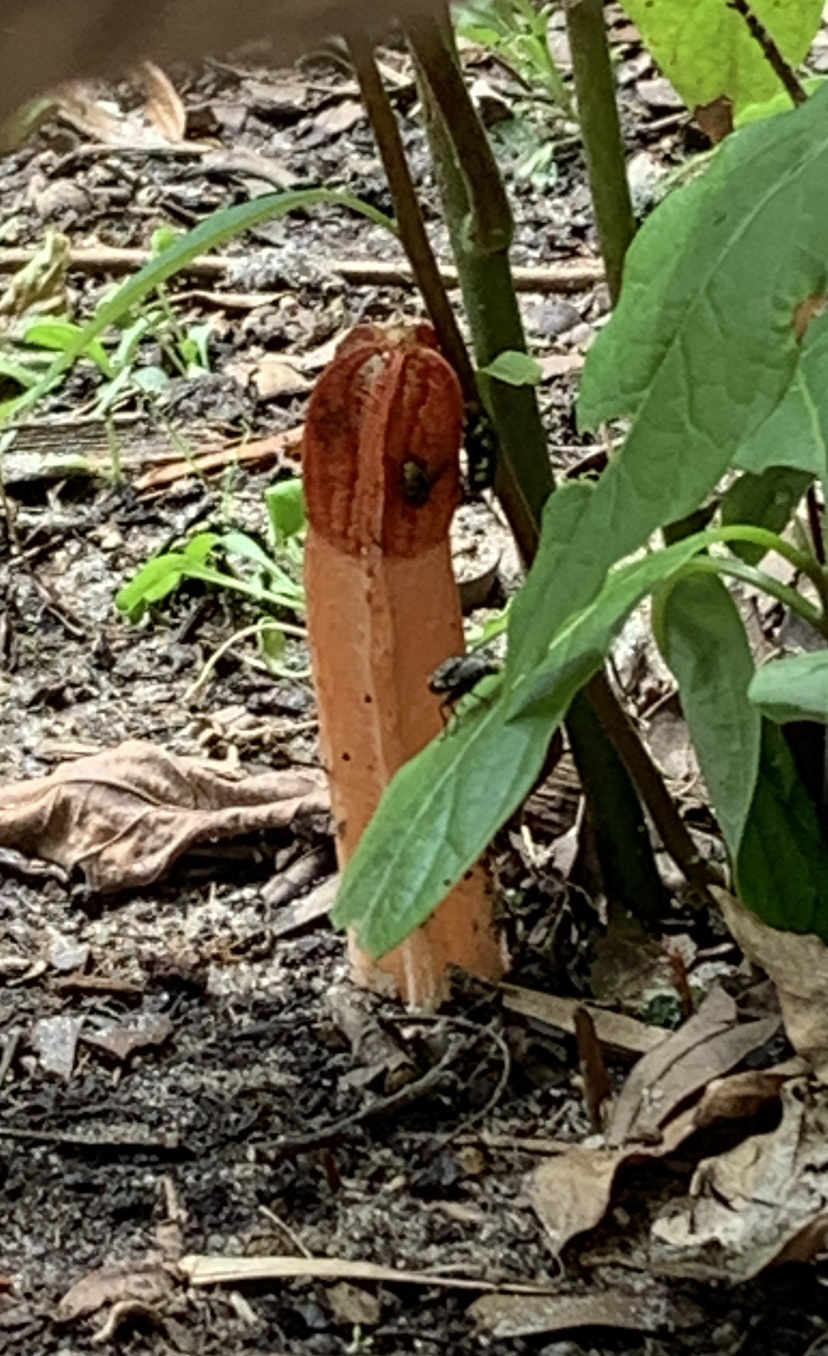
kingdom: Fungi
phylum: Basidiomycota
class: Agaricomycetes
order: Phallales
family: Phallaceae
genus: Lysurus
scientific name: Lysurus mokusin
